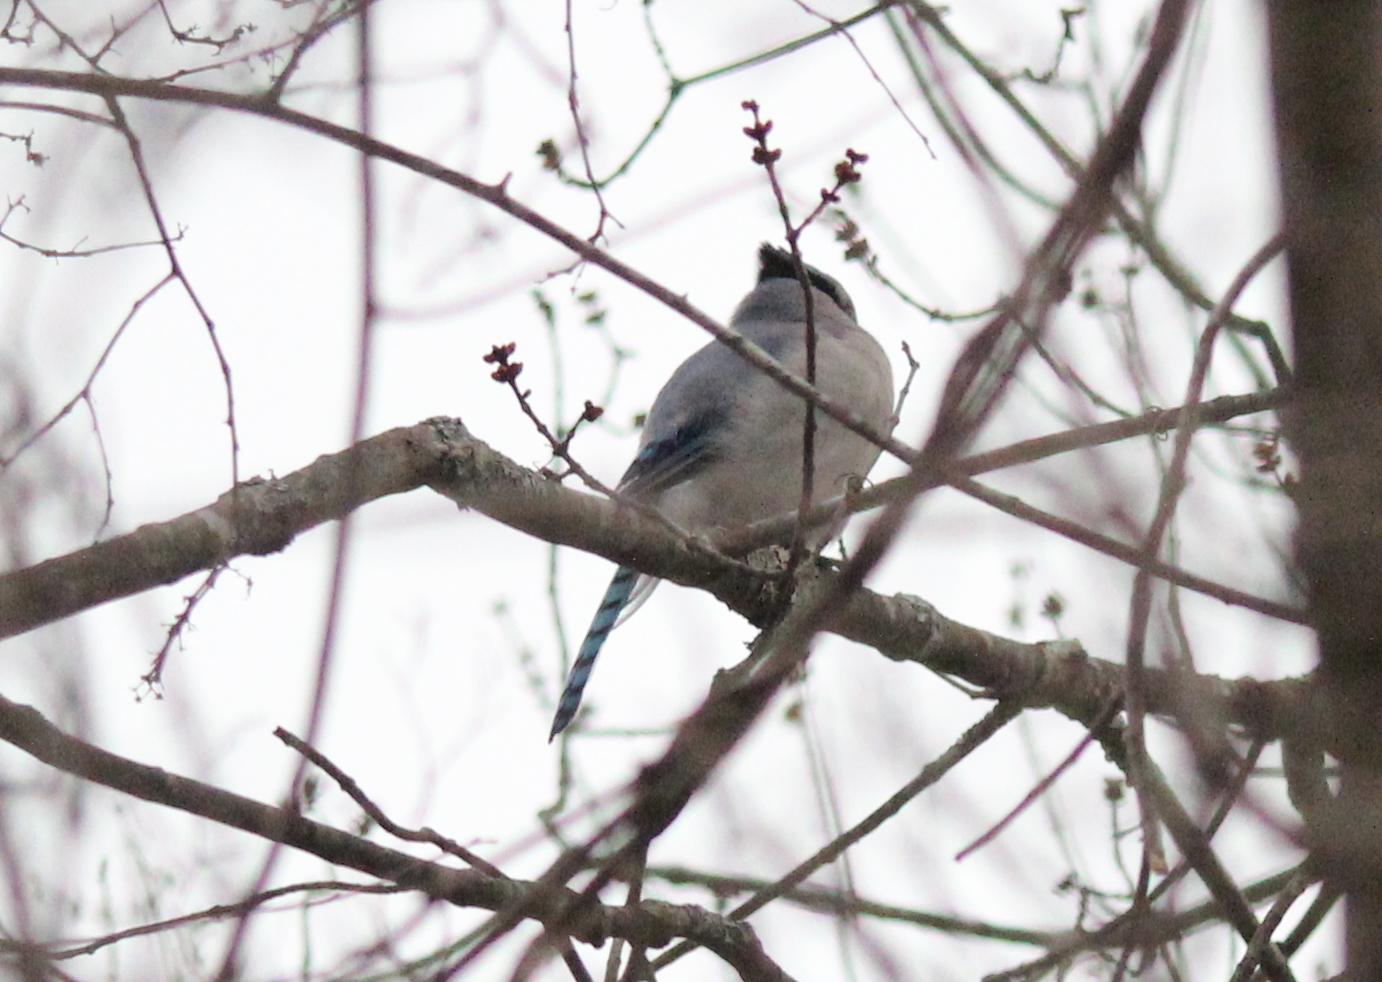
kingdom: Animalia
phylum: Chordata
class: Aves
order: Passeriformes
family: Corvidae
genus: Cyanocitta
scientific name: Cyanocitta cristata
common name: Blue jay
